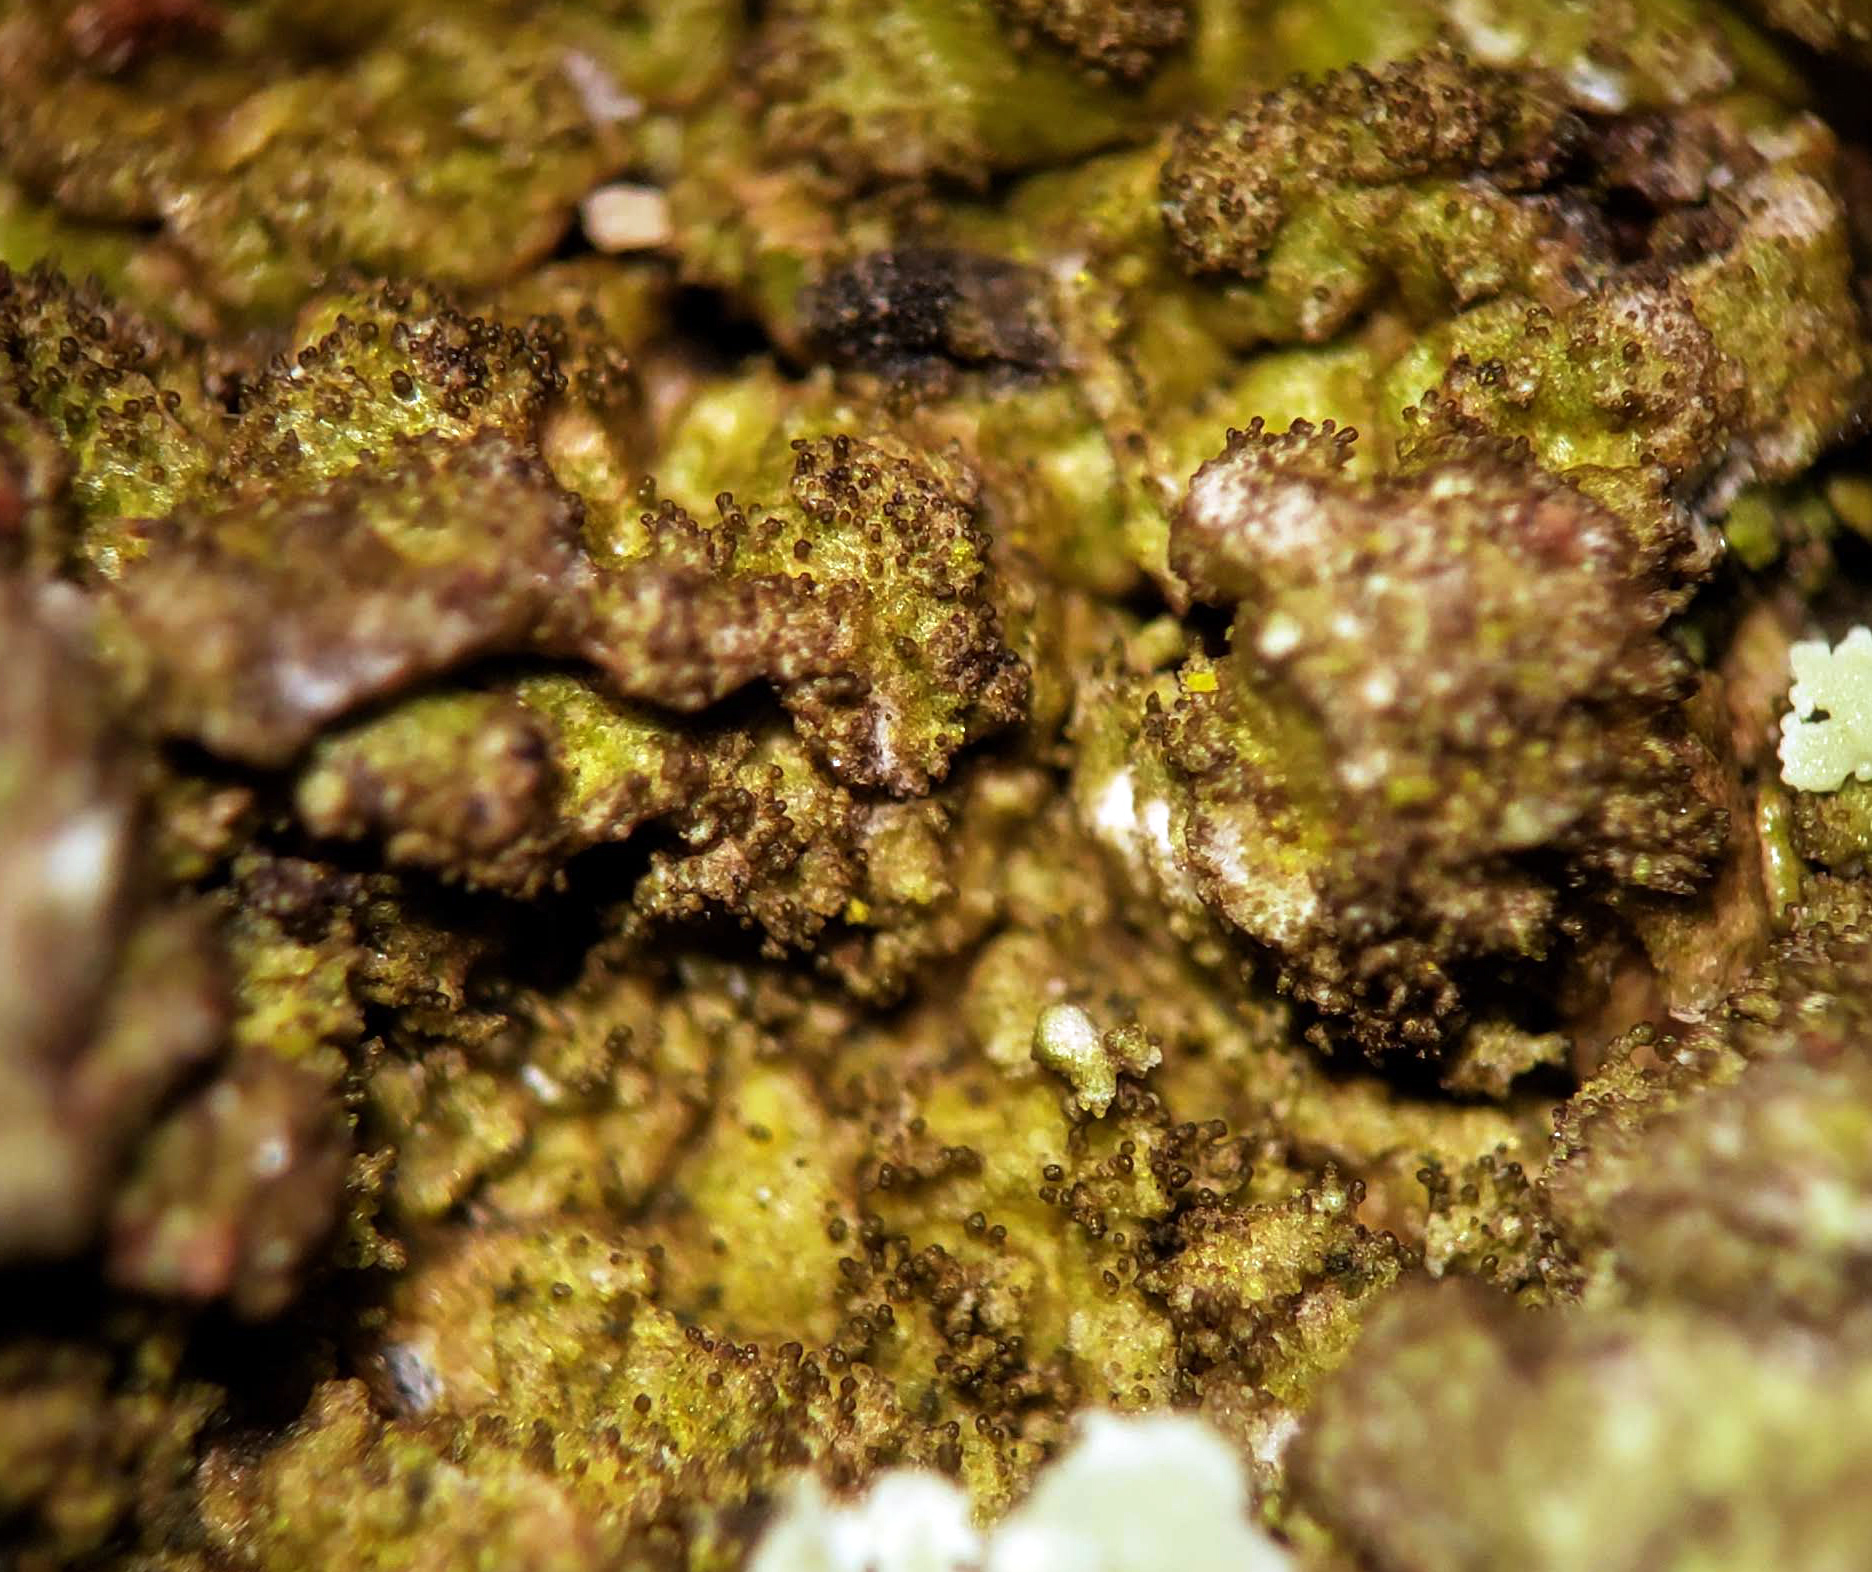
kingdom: Fungi
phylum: Ascomycota
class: Lecanoromycetes
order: Lecanorales
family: Parmeliaceae
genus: Melanelixia
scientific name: Melanelixia subaurifera
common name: Abraded camouflage lichen
